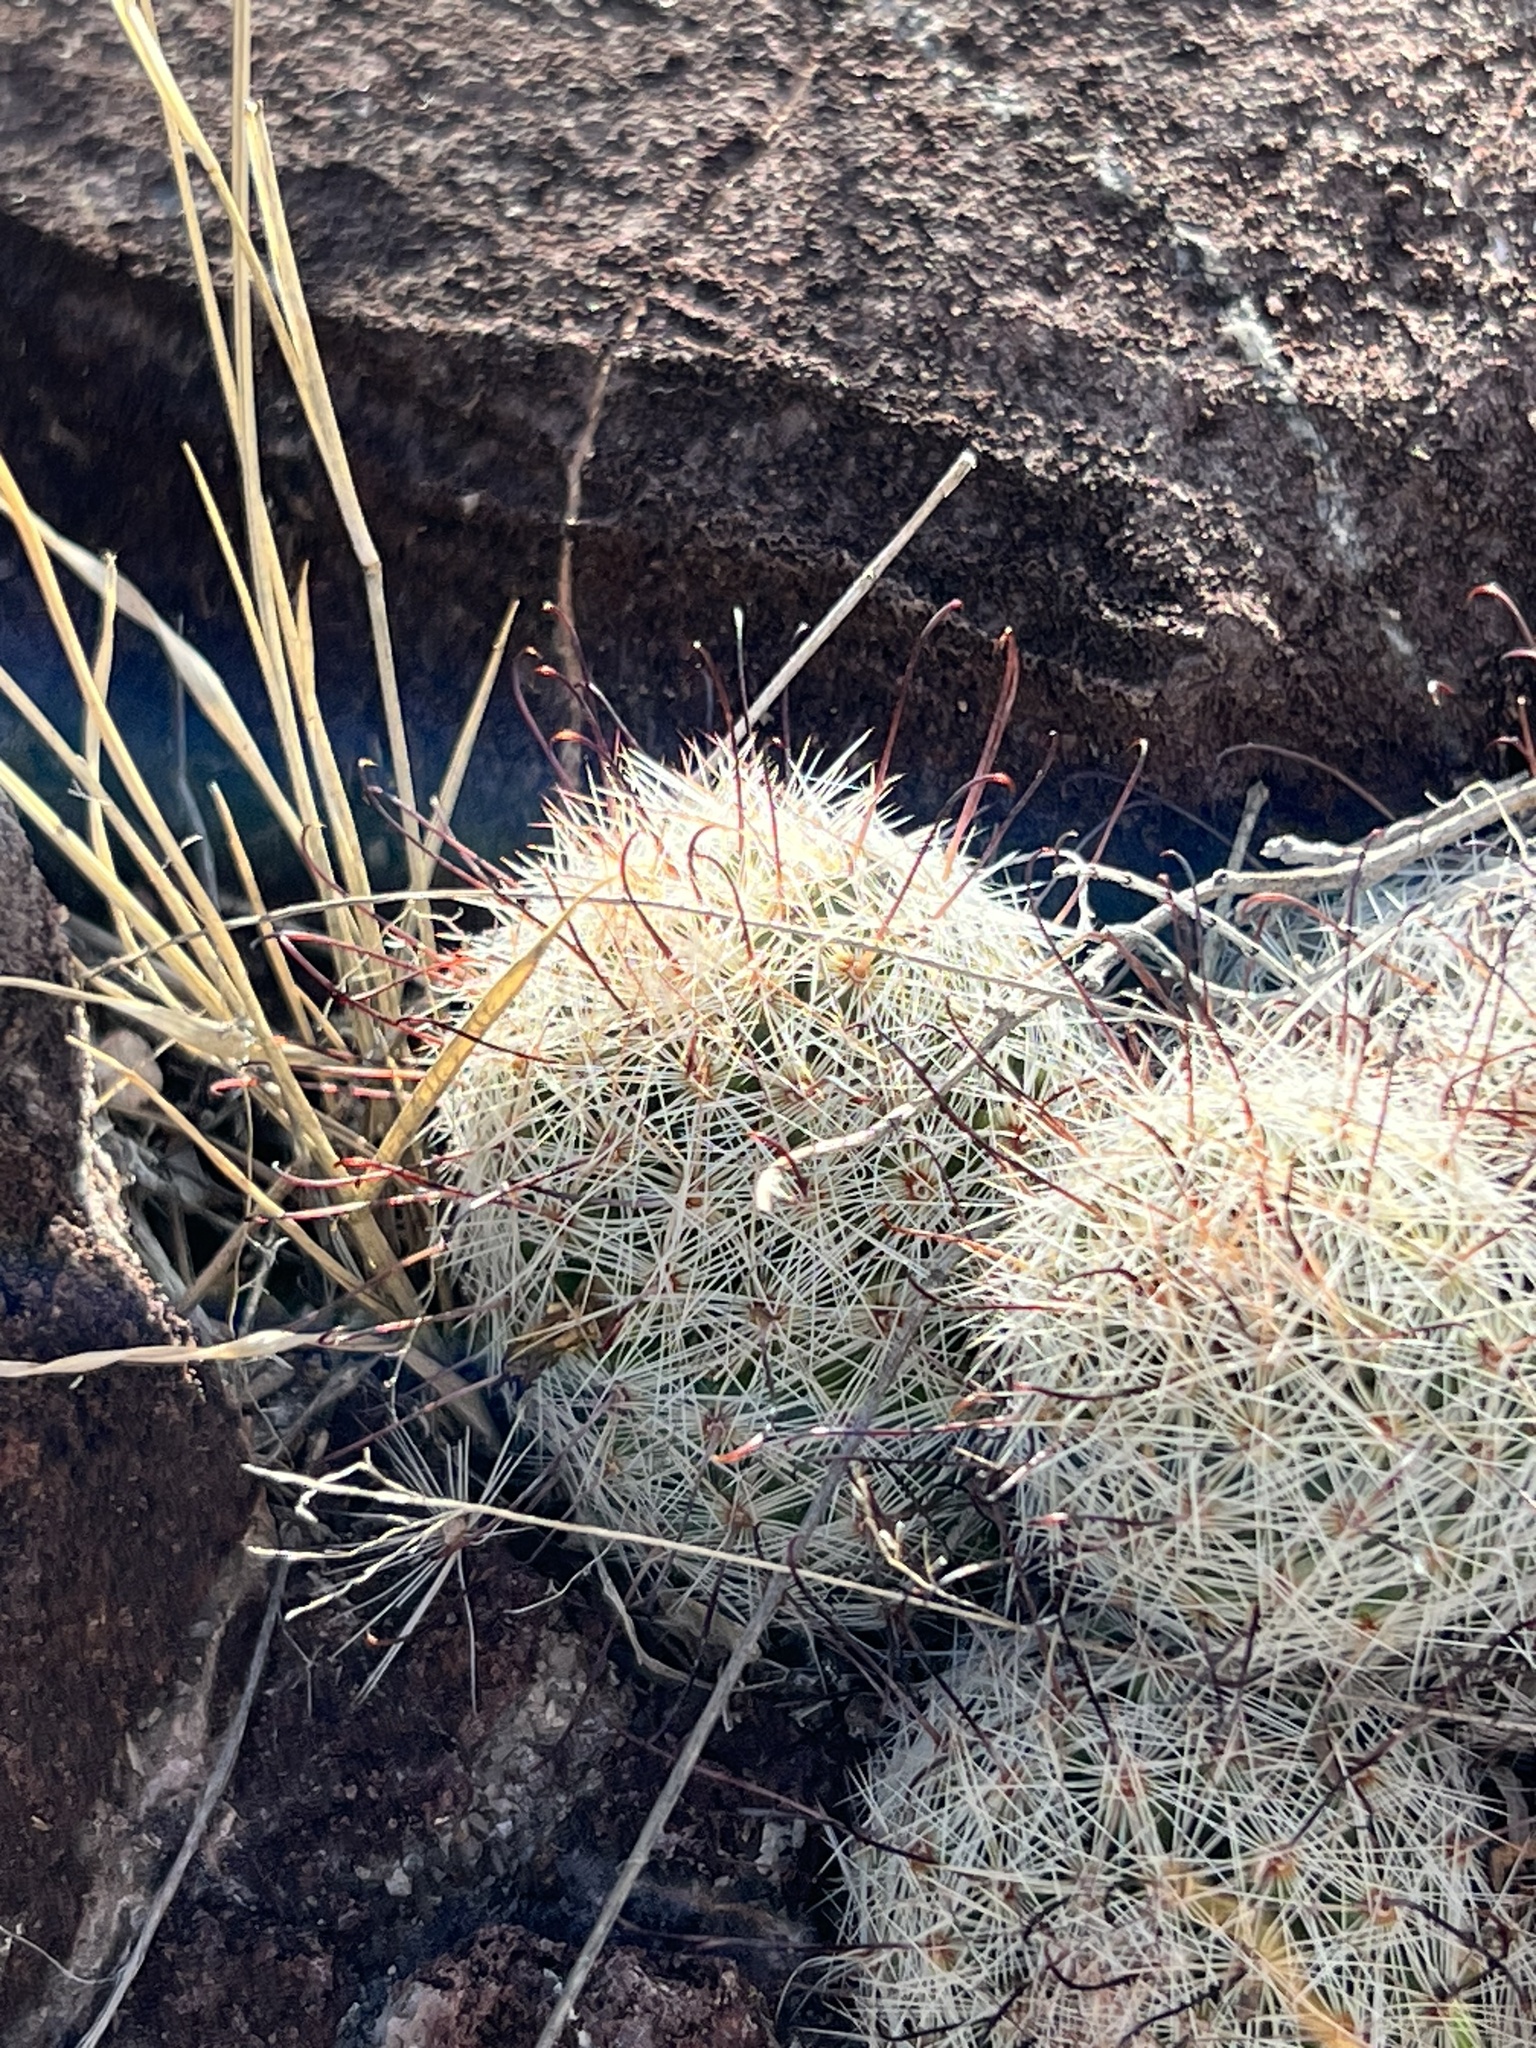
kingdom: Plantae
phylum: Tracheophyta
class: Magnoliopsida
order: Caryophyllales
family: Cactaceae
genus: Cochemiea
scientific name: Cochemiea grahamii
